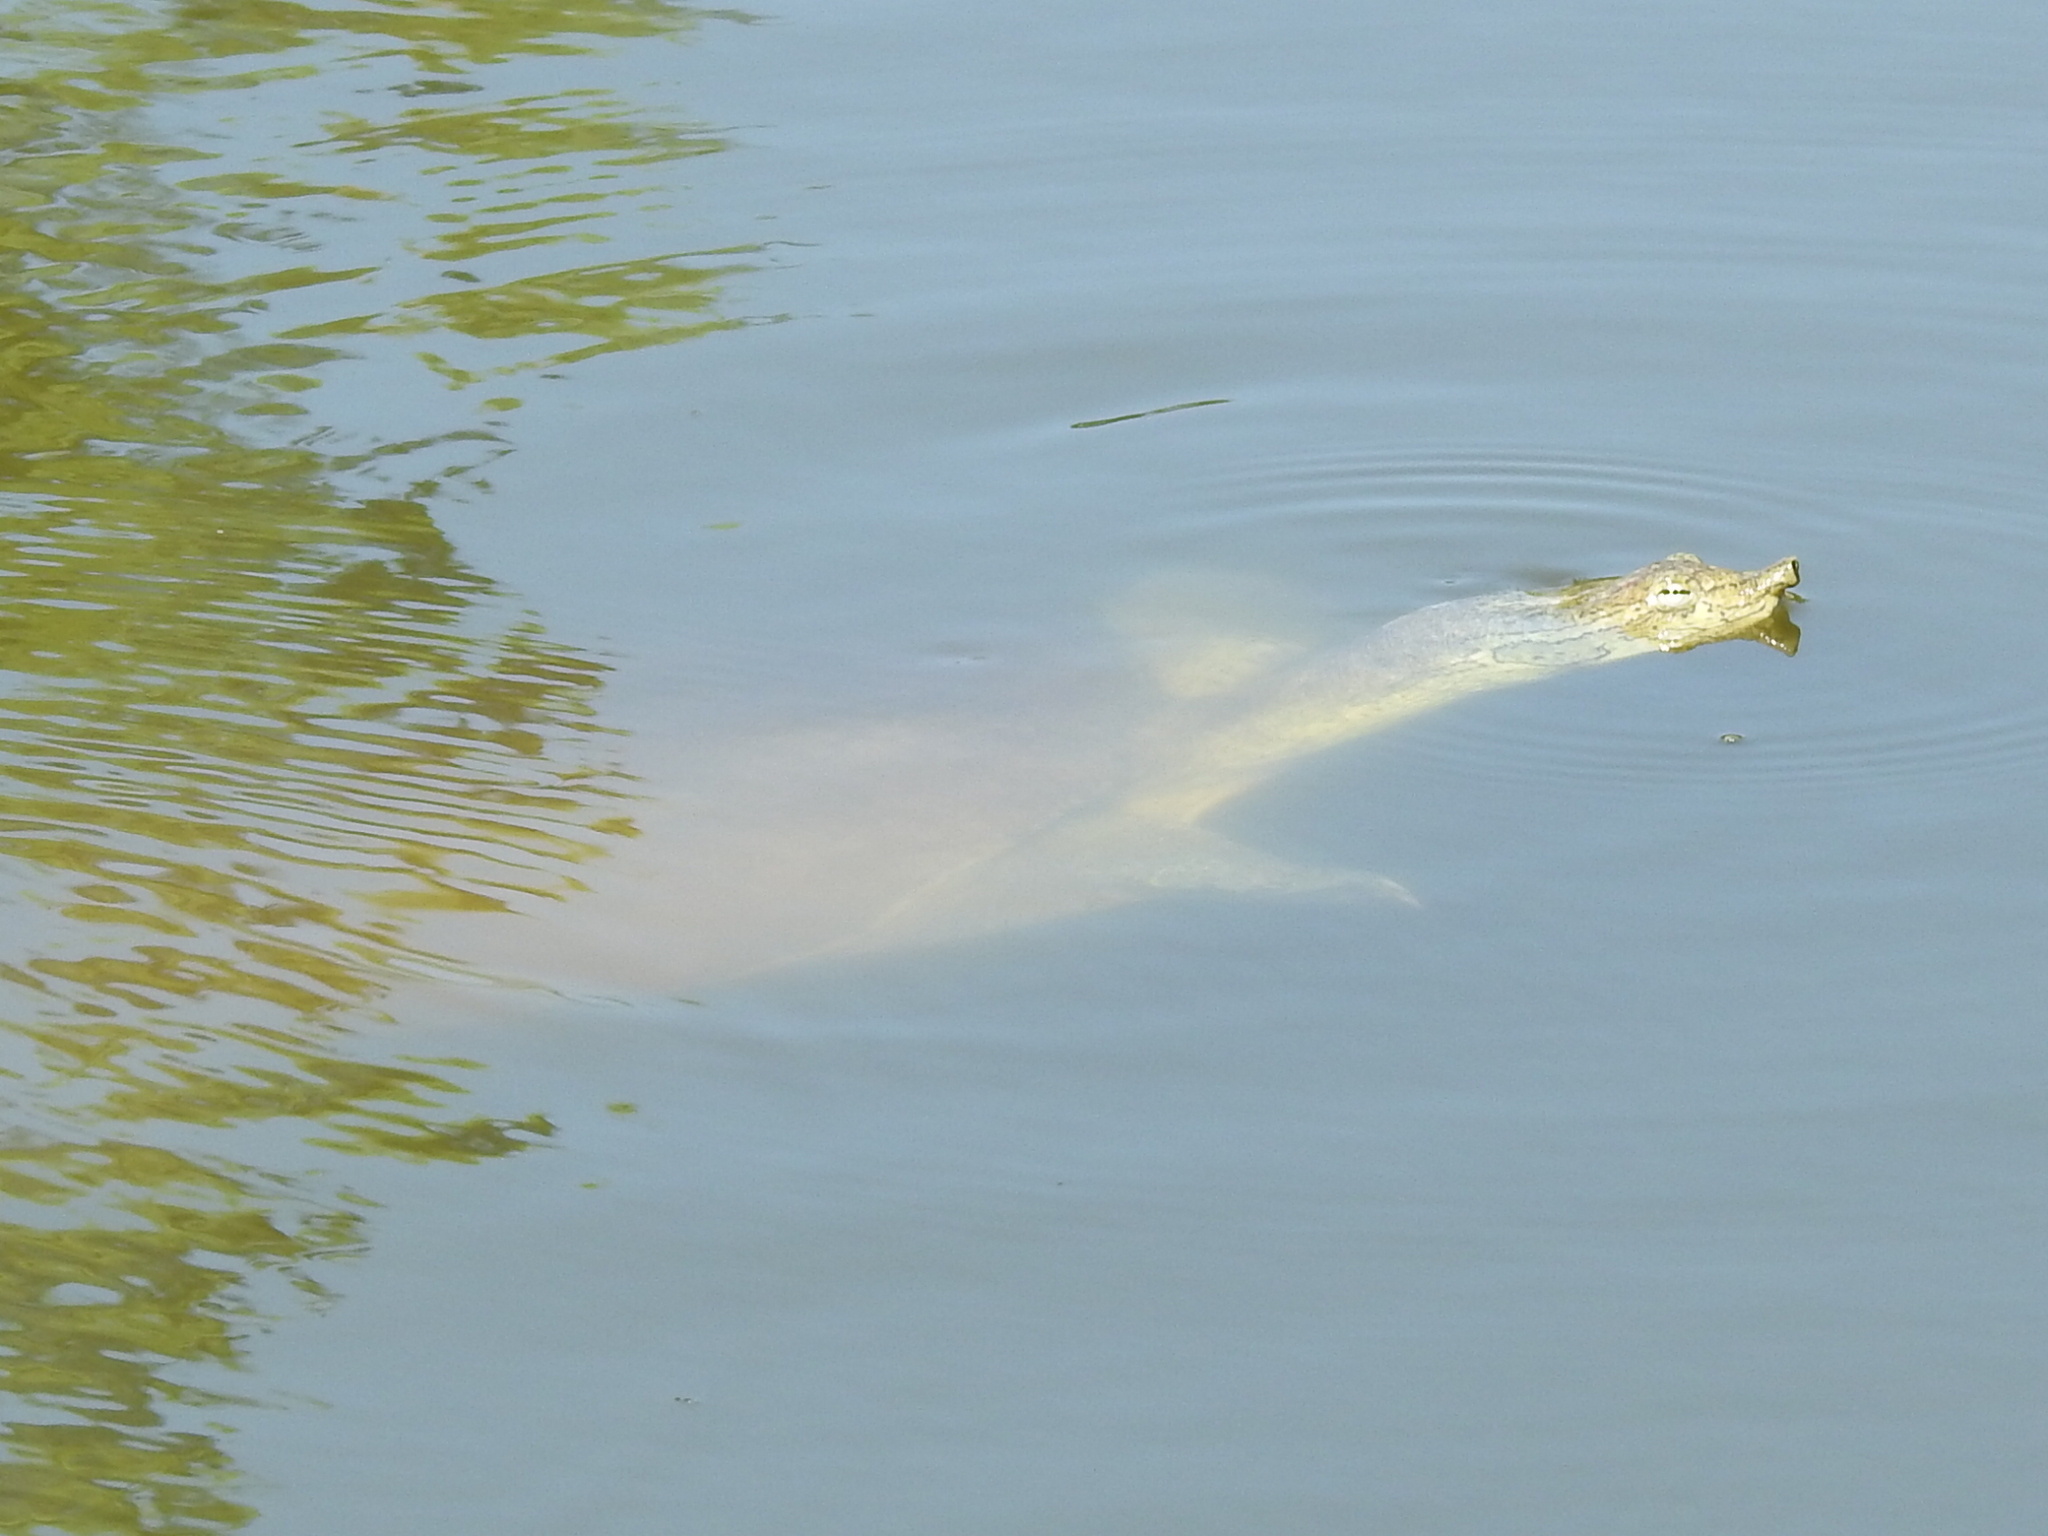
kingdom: Animalia
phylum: Chordata
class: Testudines
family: Trionychidae
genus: Apalone
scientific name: Apalone spinifera
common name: Spiny softshell turtle
